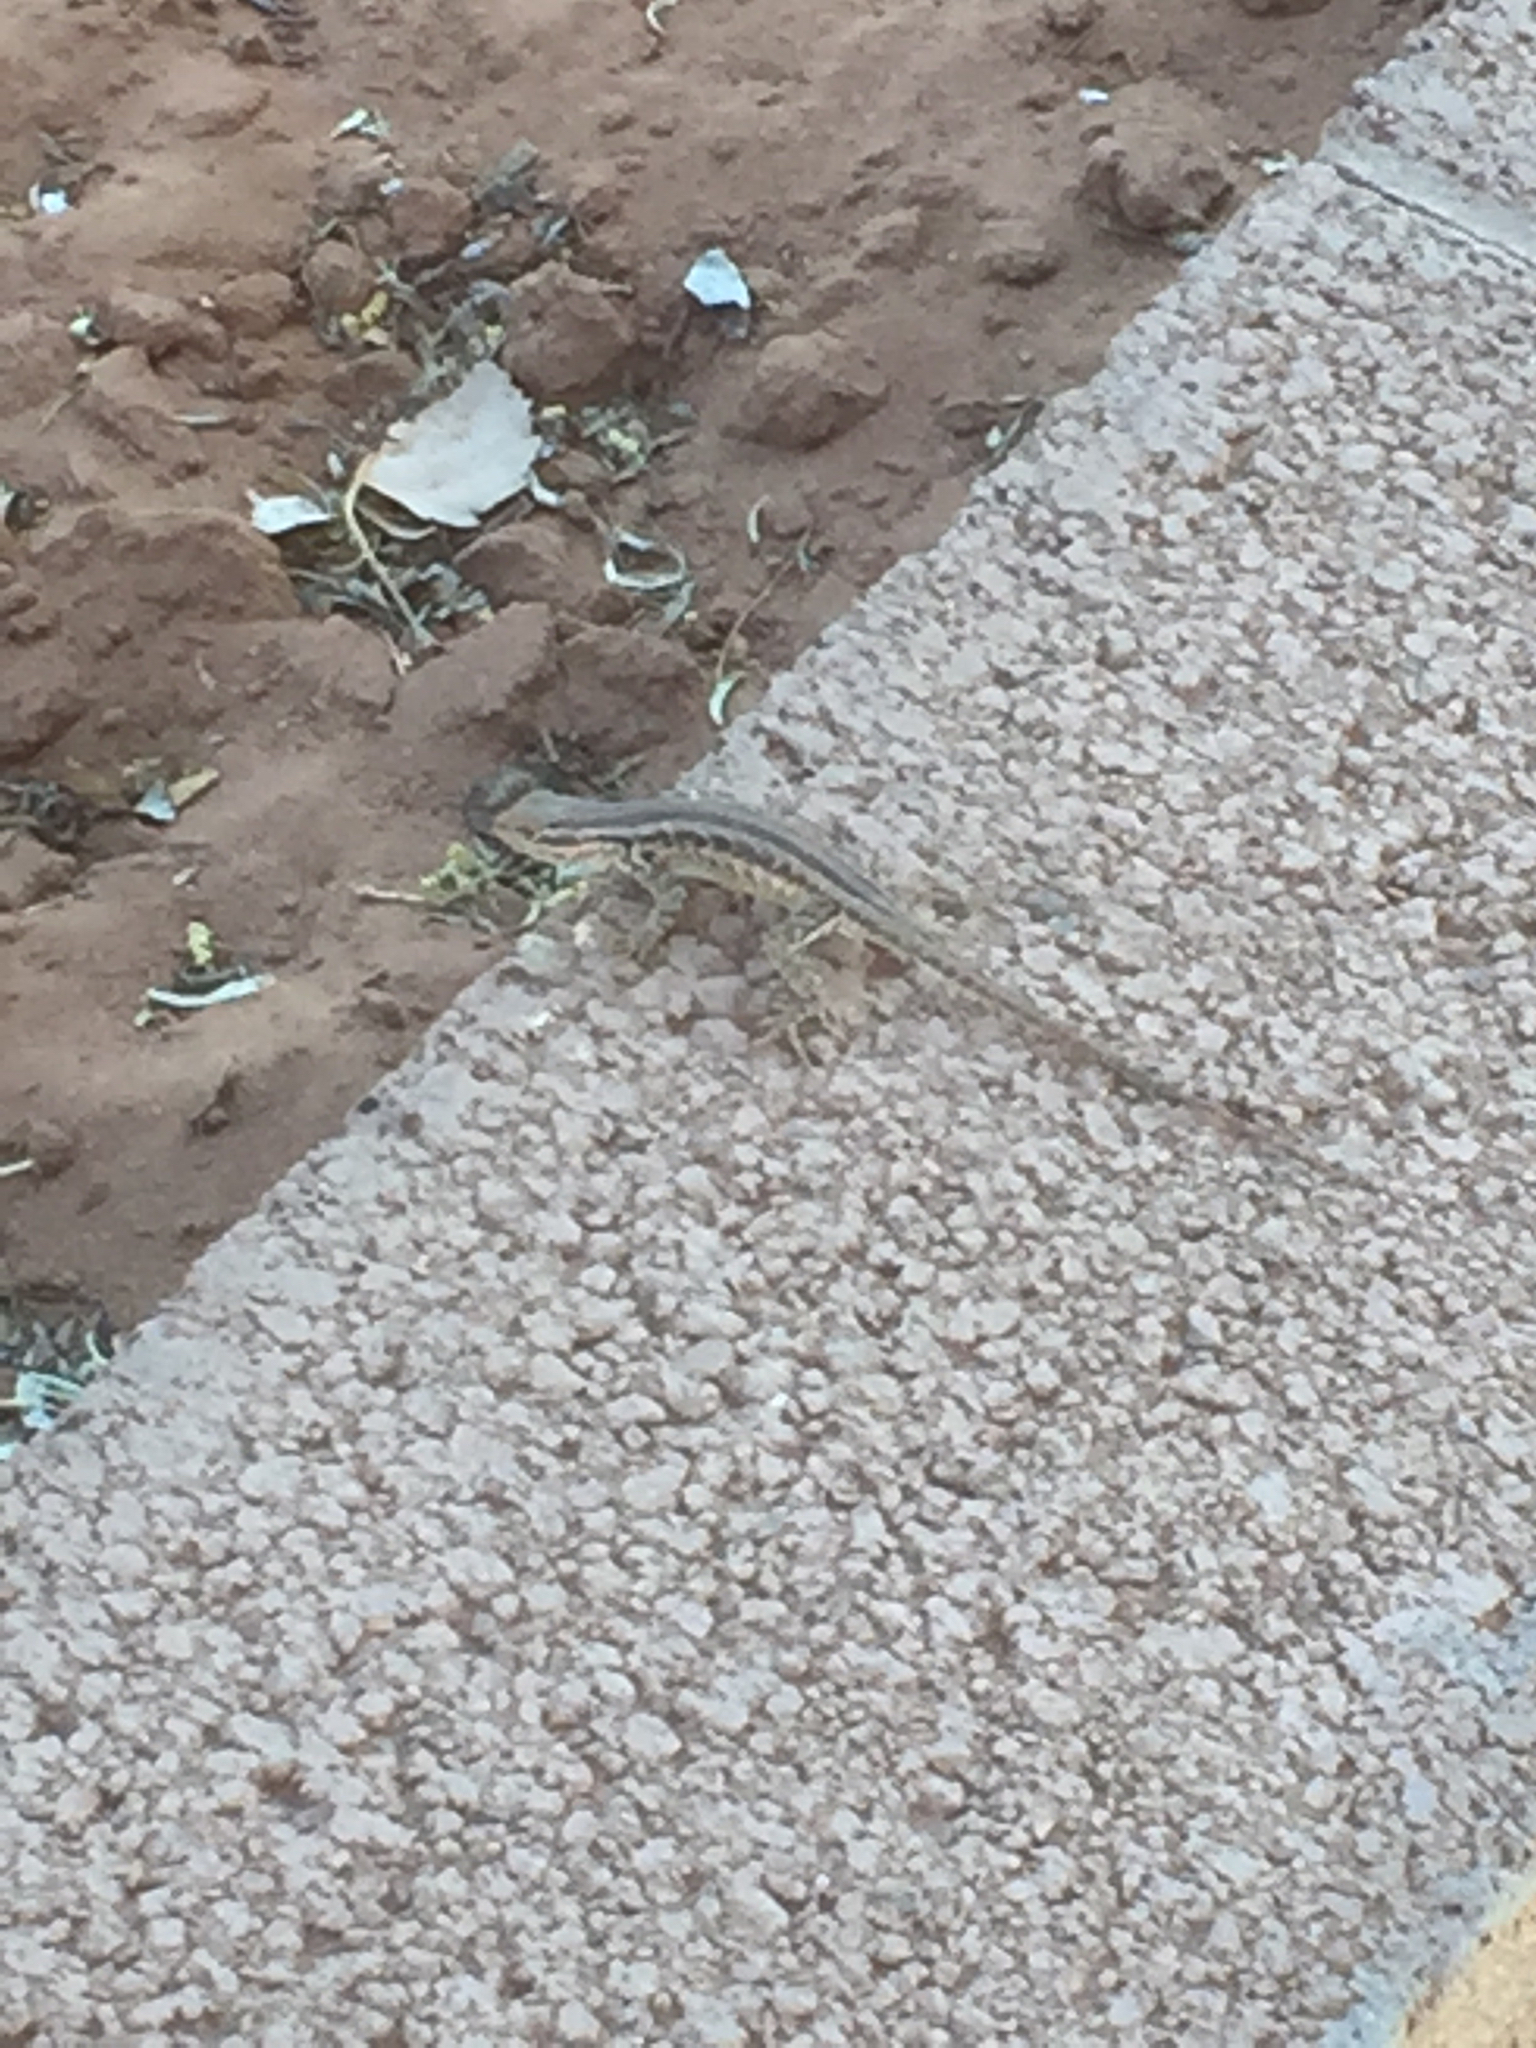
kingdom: Animalia
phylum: Chordata
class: Squamata
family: Phrynosomatidae
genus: Sceloporus
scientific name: Sceloporus cowlesi
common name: White sands prairie lizard
